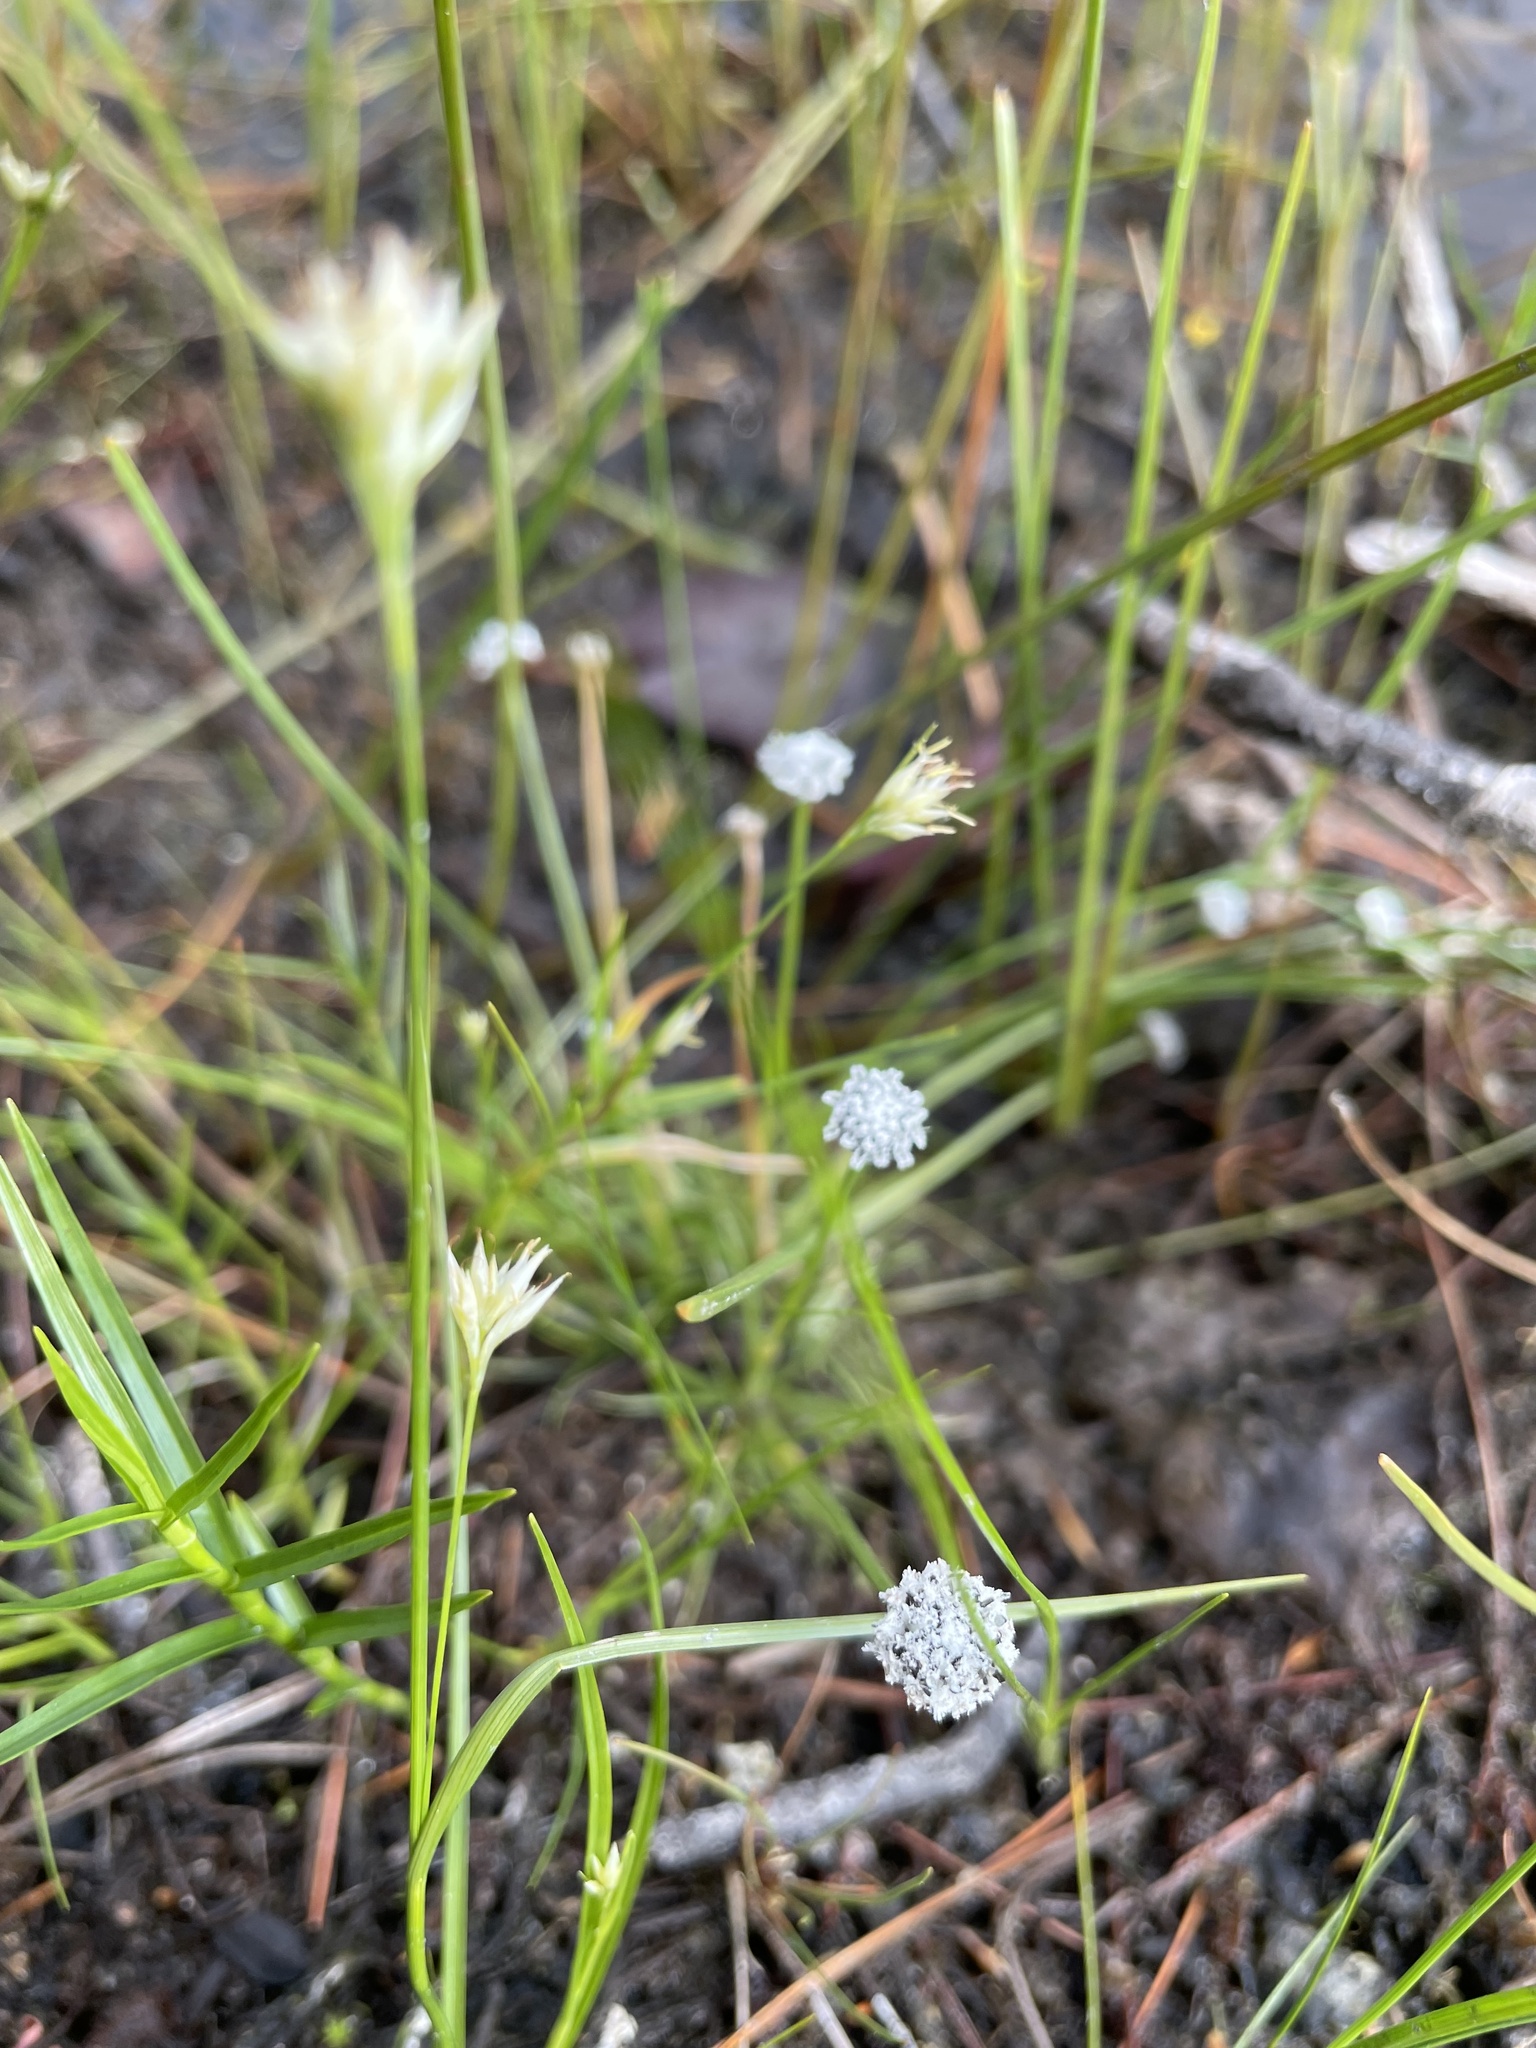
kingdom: Plantae
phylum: Tracheophyta
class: Liliopsida
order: Poales
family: Eriocaulaceae
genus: Eriocaulon
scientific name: Eriocaulon aquaticum
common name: Pipewort
